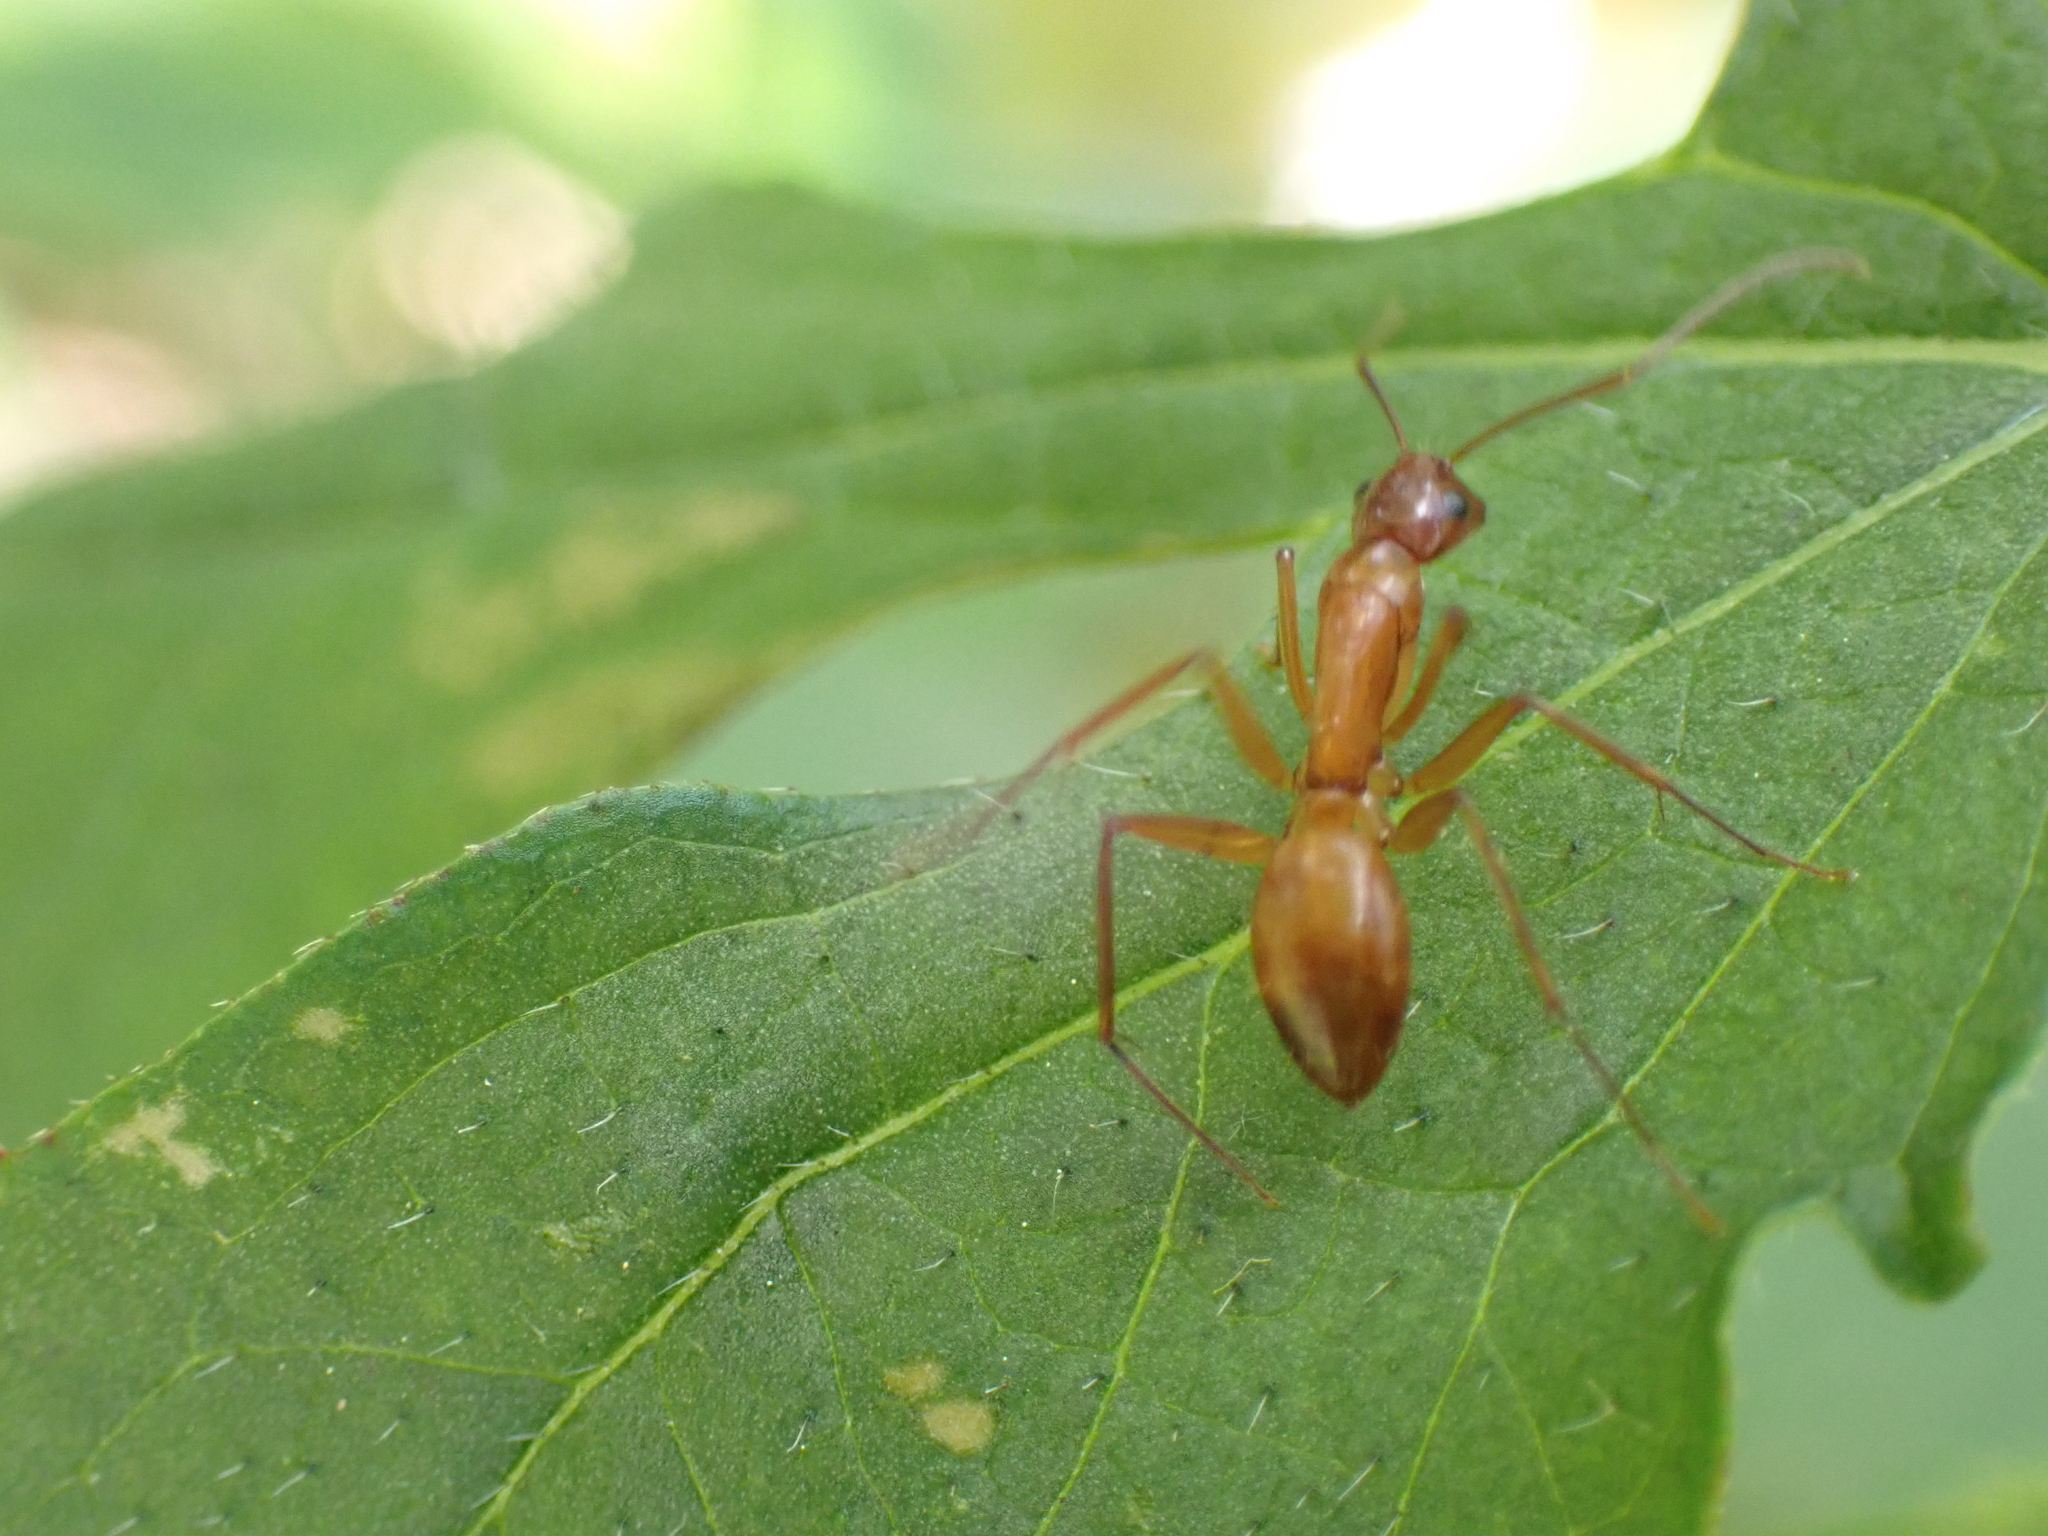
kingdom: Animalia
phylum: Arthropoda
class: Insecta
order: Hymenoptera
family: Formicidae
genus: Camponotus
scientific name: Camponotus castaneus
